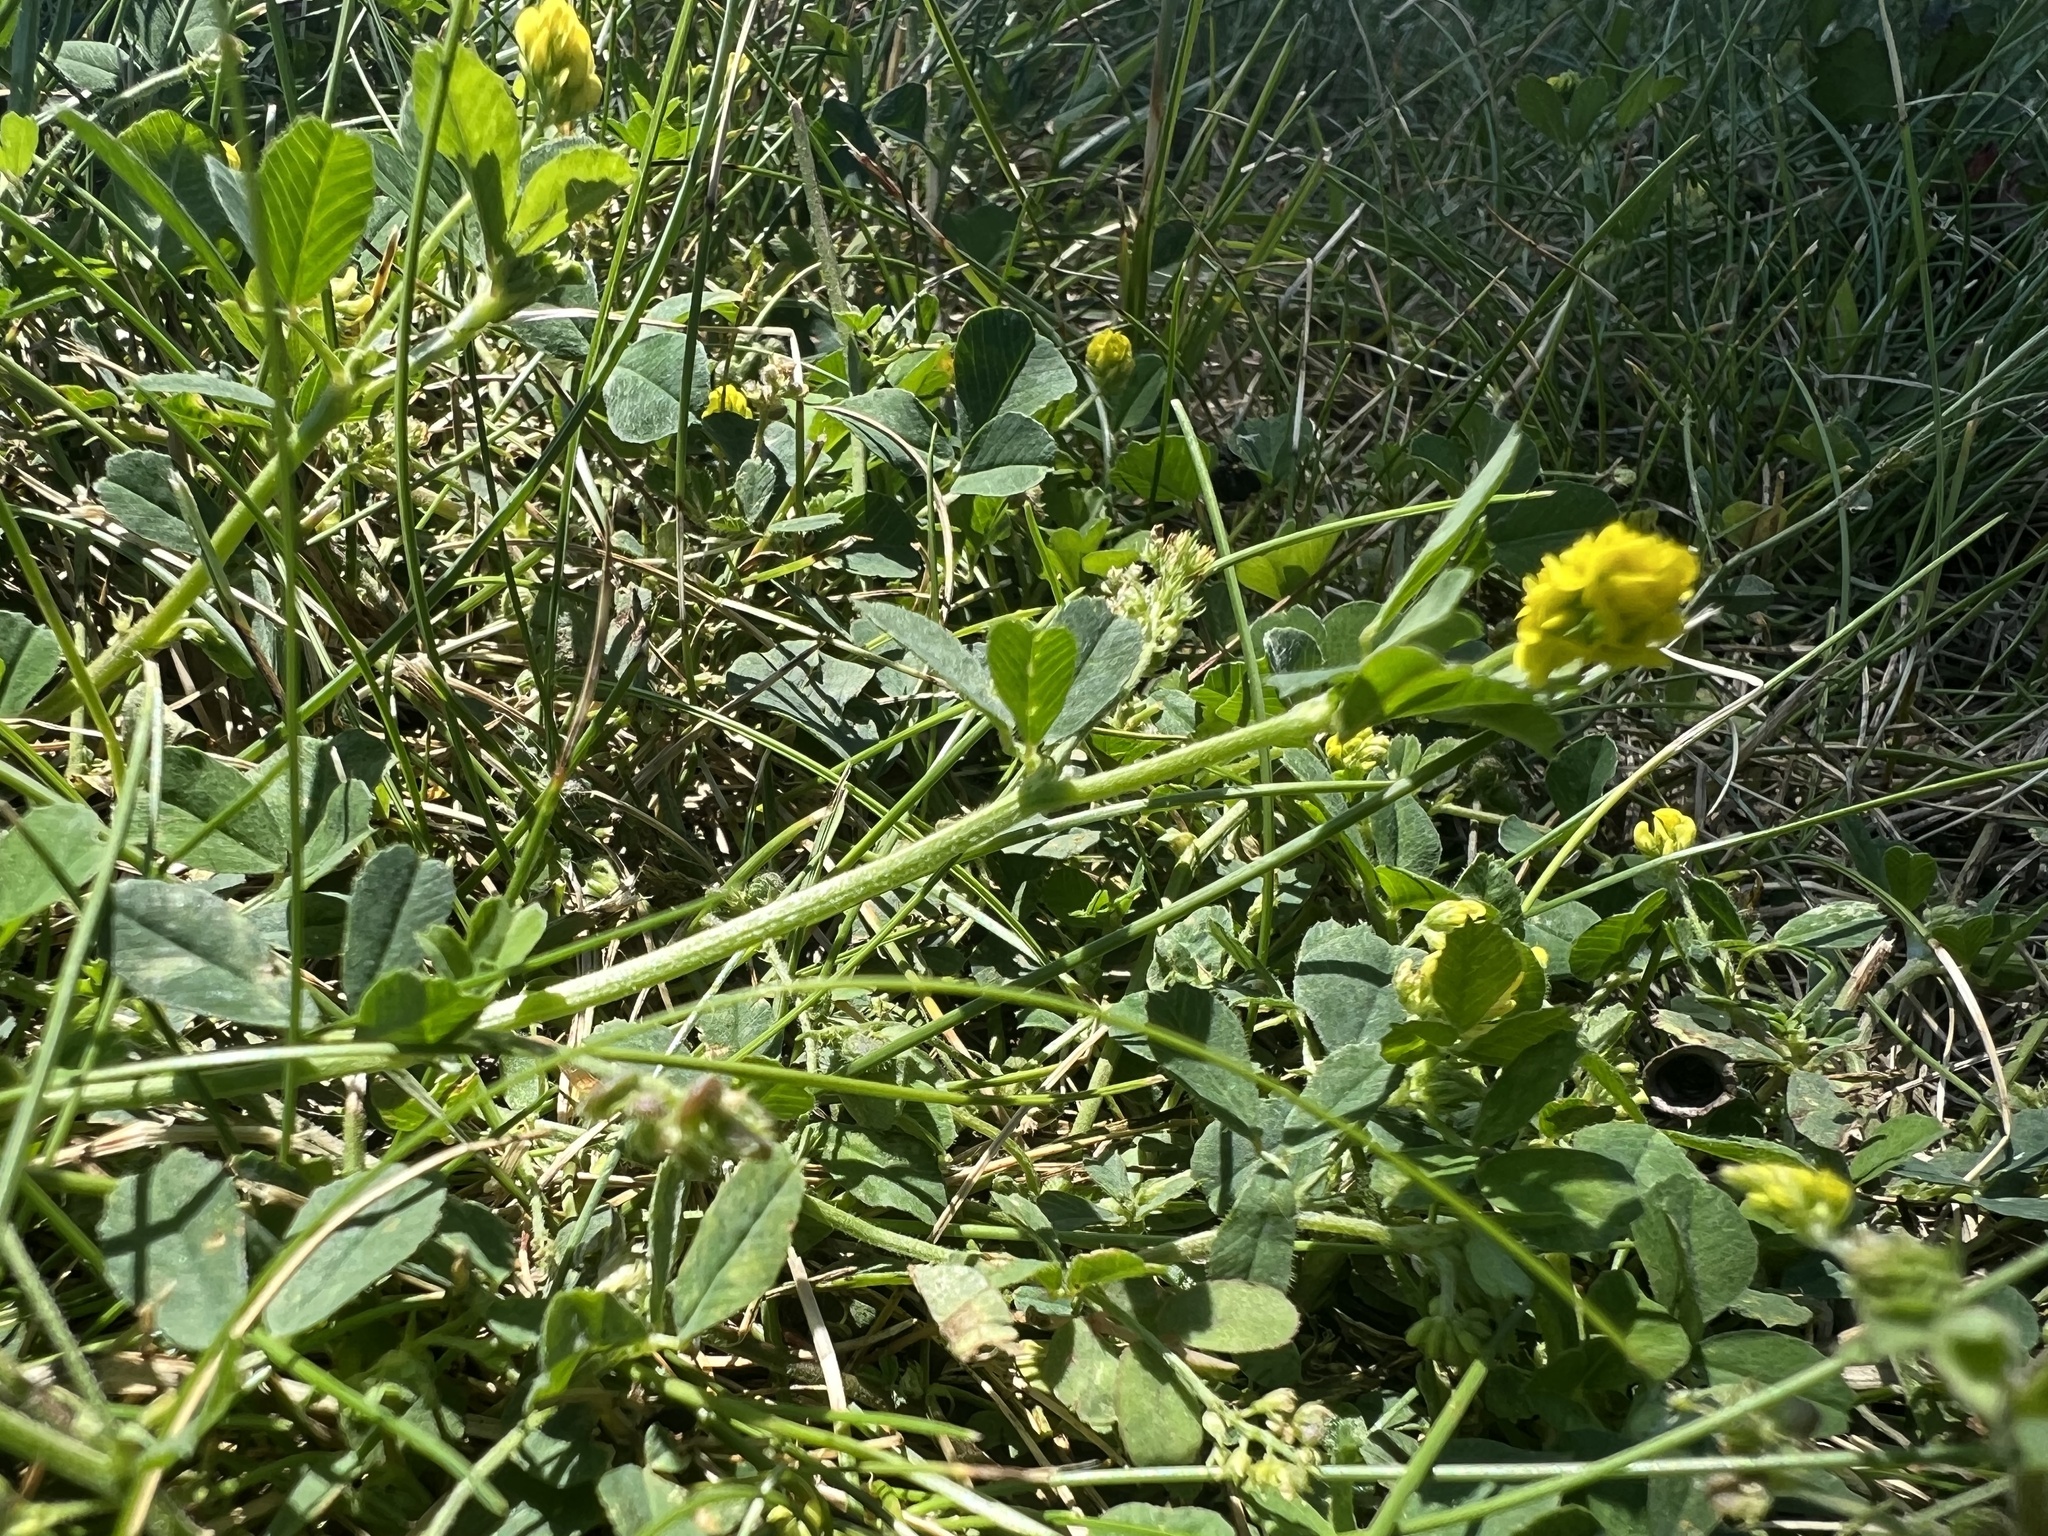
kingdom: Plantae
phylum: Tracheophyta
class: Magnoliopsida
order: Fabales
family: Fabaceae
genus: Medicago
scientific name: Medicago lupulina
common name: Black medick
